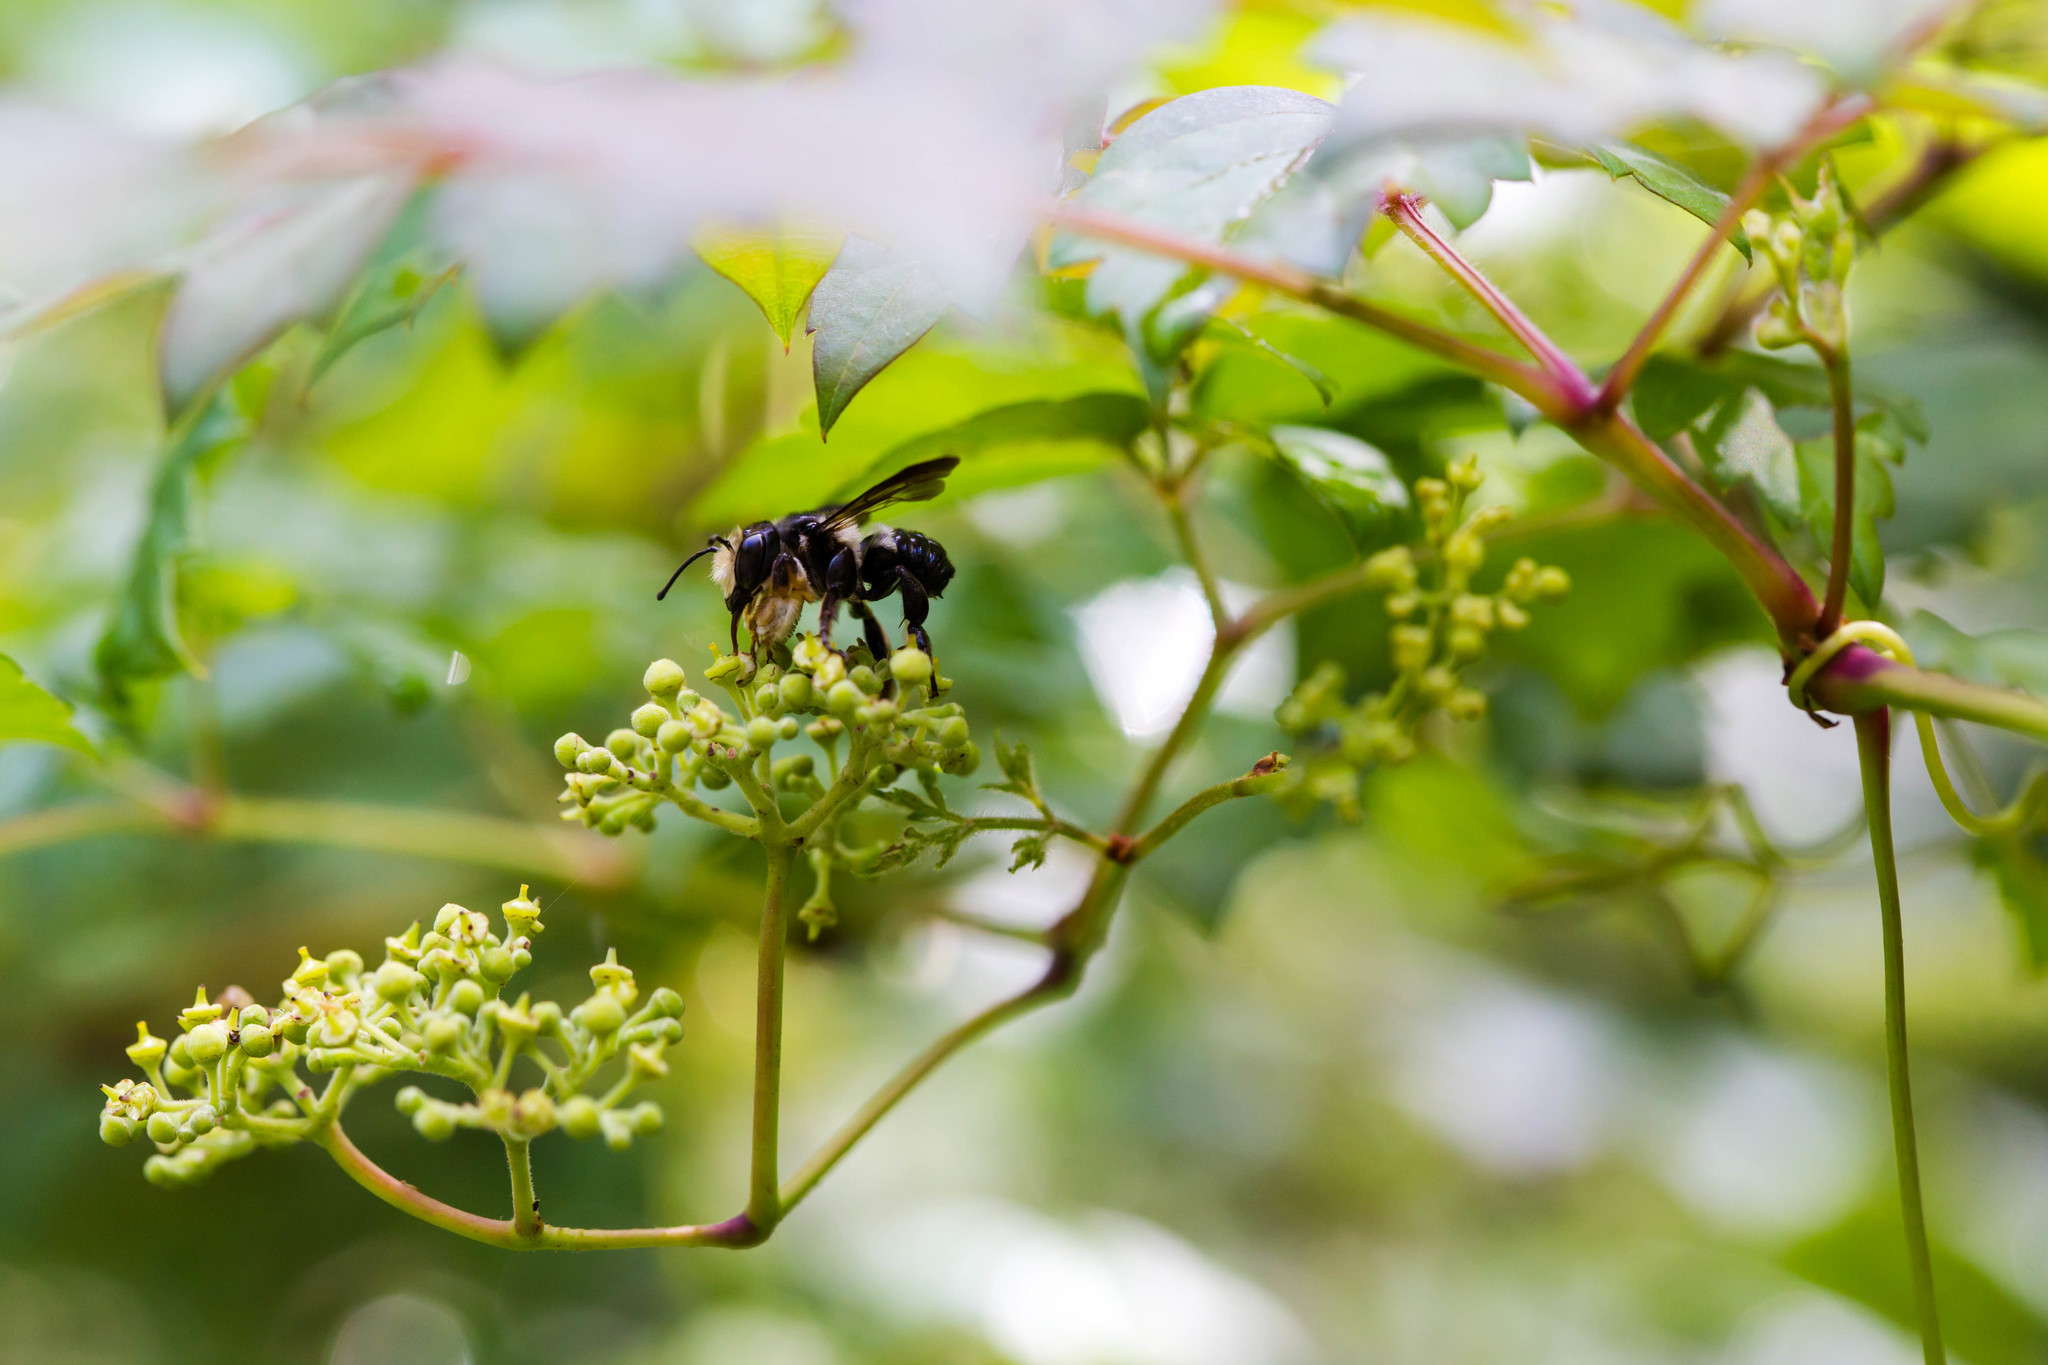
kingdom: Animalia
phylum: Arthropoda
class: Insecta
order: Hymenoptera
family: Megachilidae
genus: Megachile
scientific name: Megachile xylocopoides
